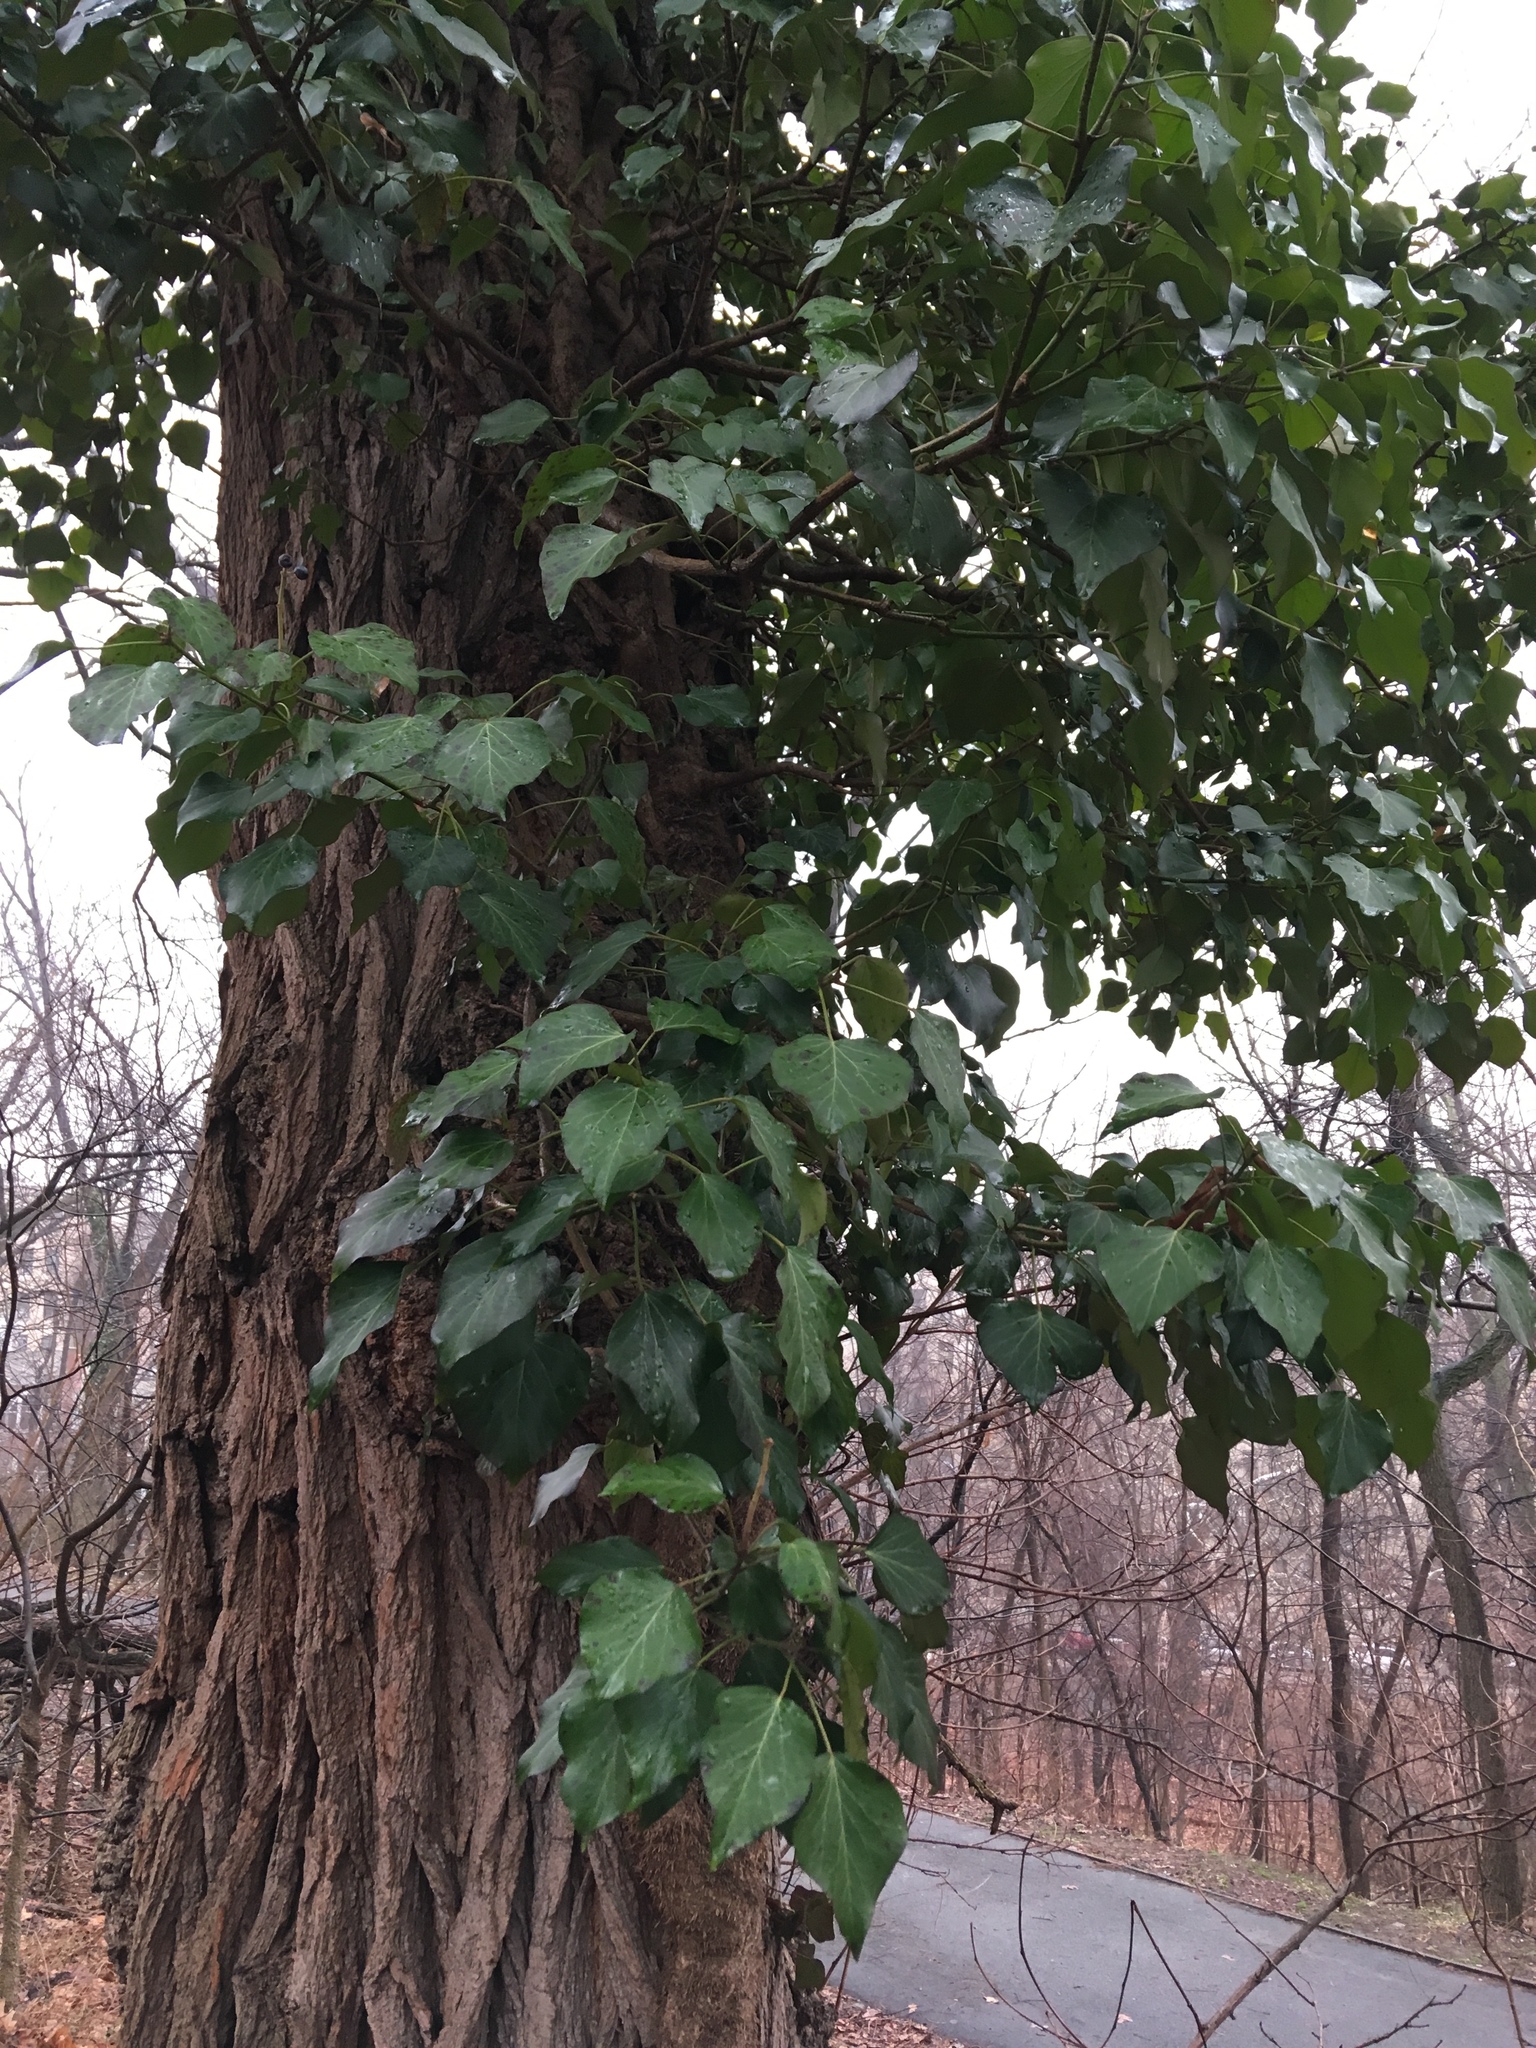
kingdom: Plantae
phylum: Tracheophyta
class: Magnoliopsida
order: Apiales
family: Araliaceae
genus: Hedera
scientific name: Hedera helix
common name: Ivy
